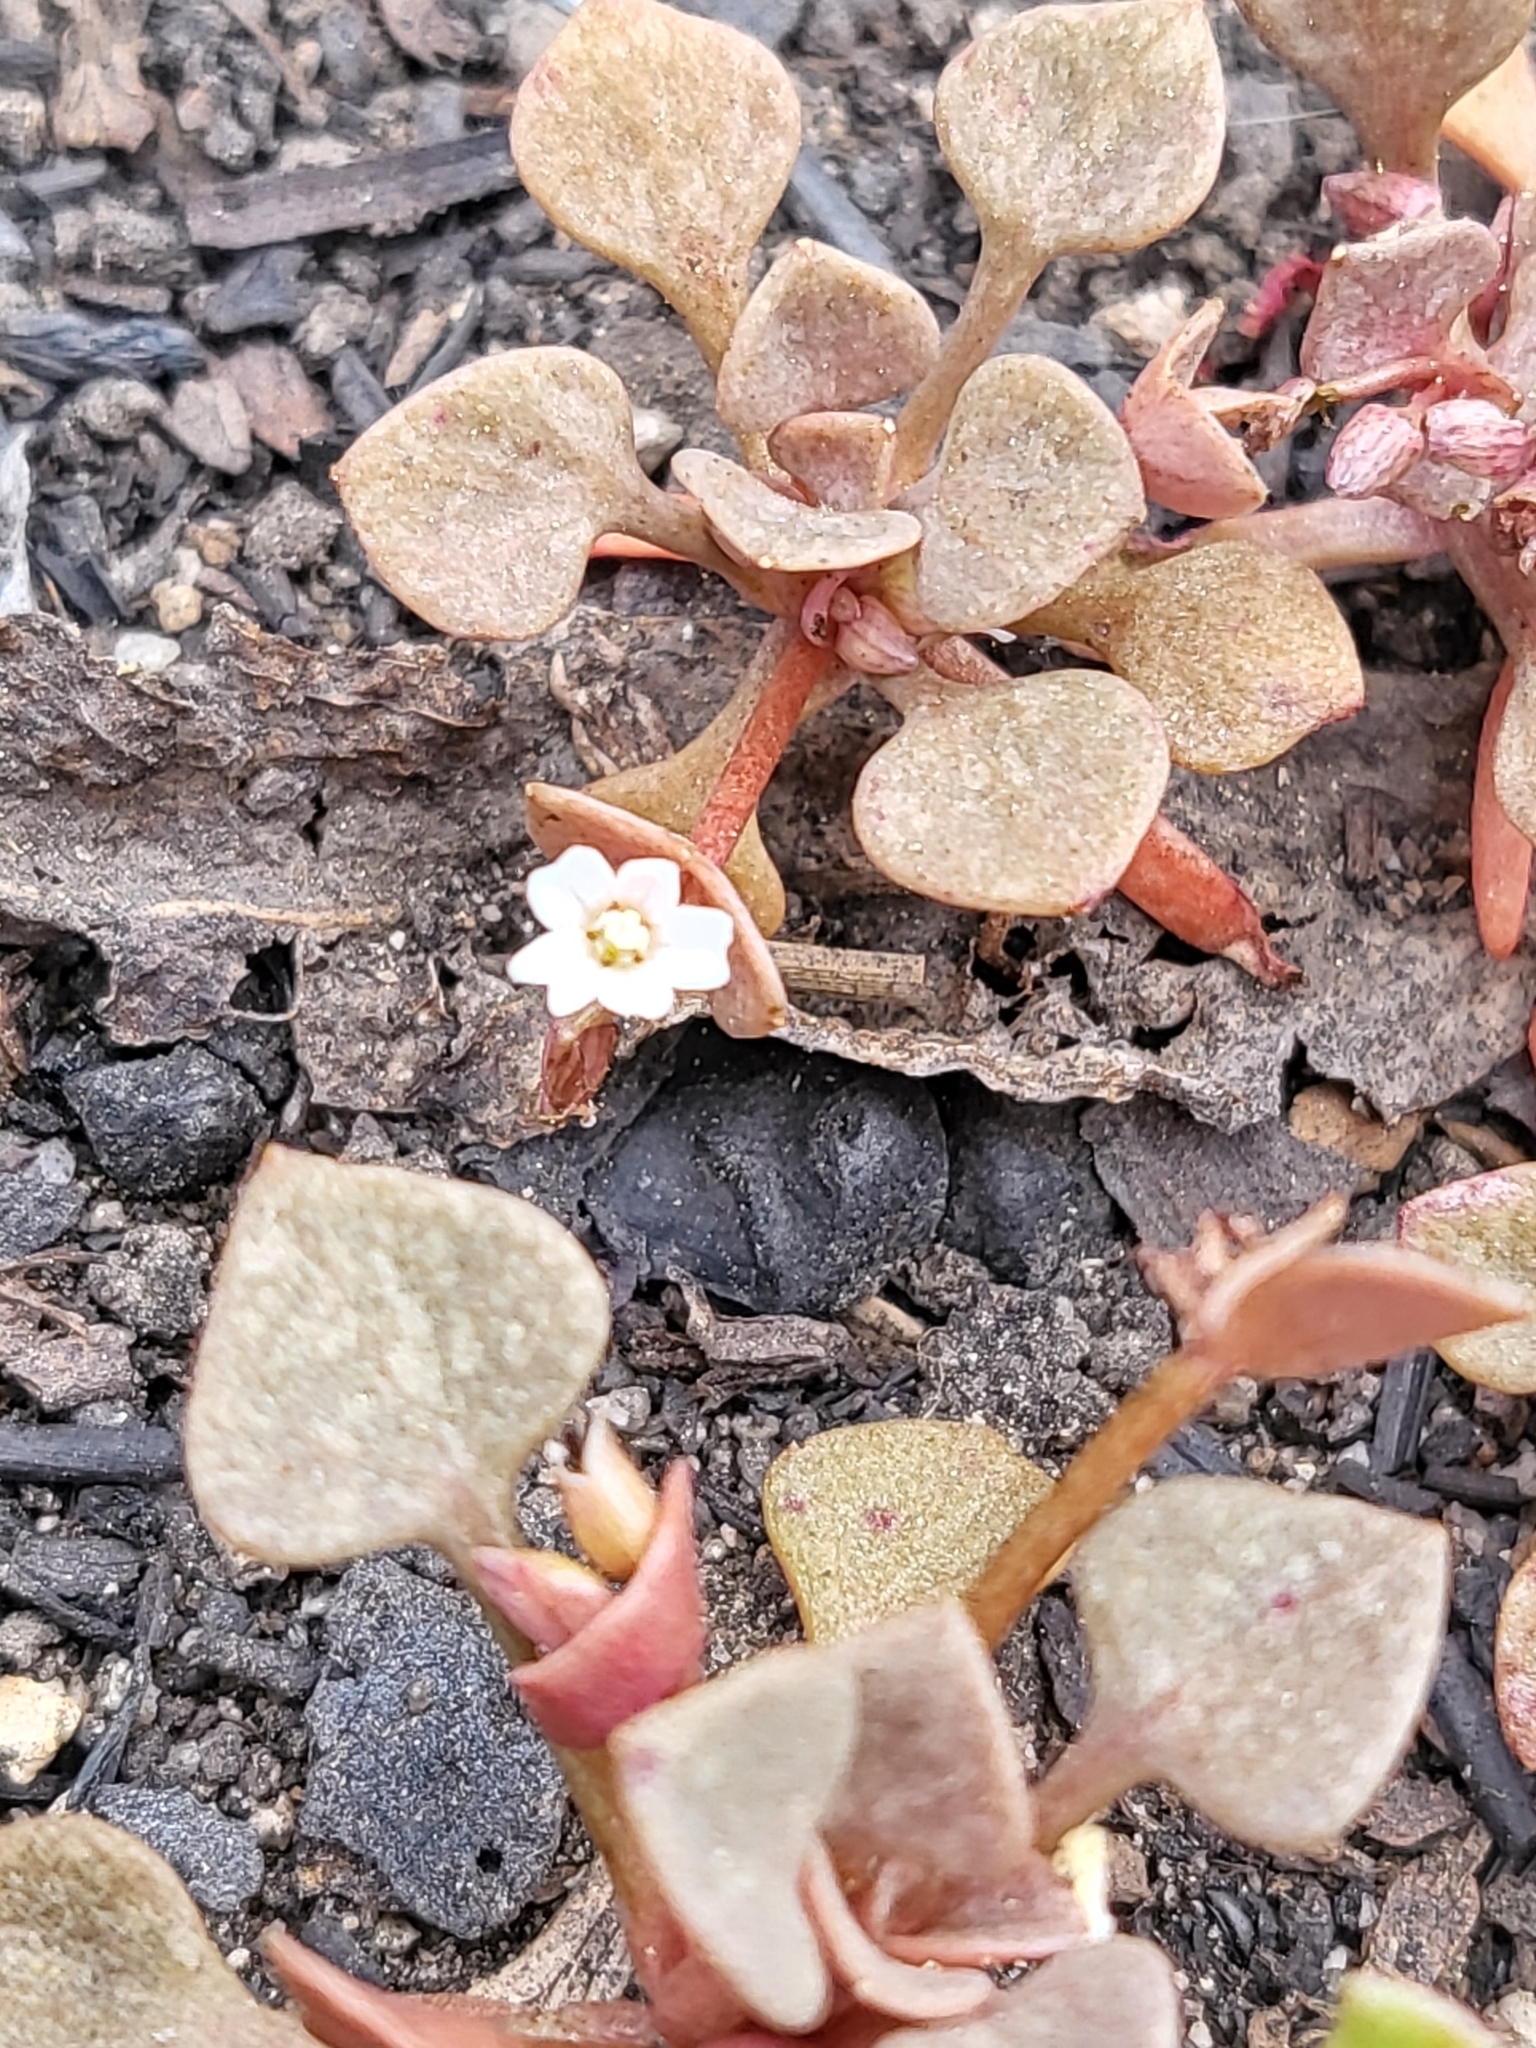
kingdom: Plantae
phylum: Tracheophyta
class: Magnoliopsida
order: Caryophyllales
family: Montiaceae
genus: Claytonia
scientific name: Claytonia rubra
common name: Erubescent miner's-lettuce
